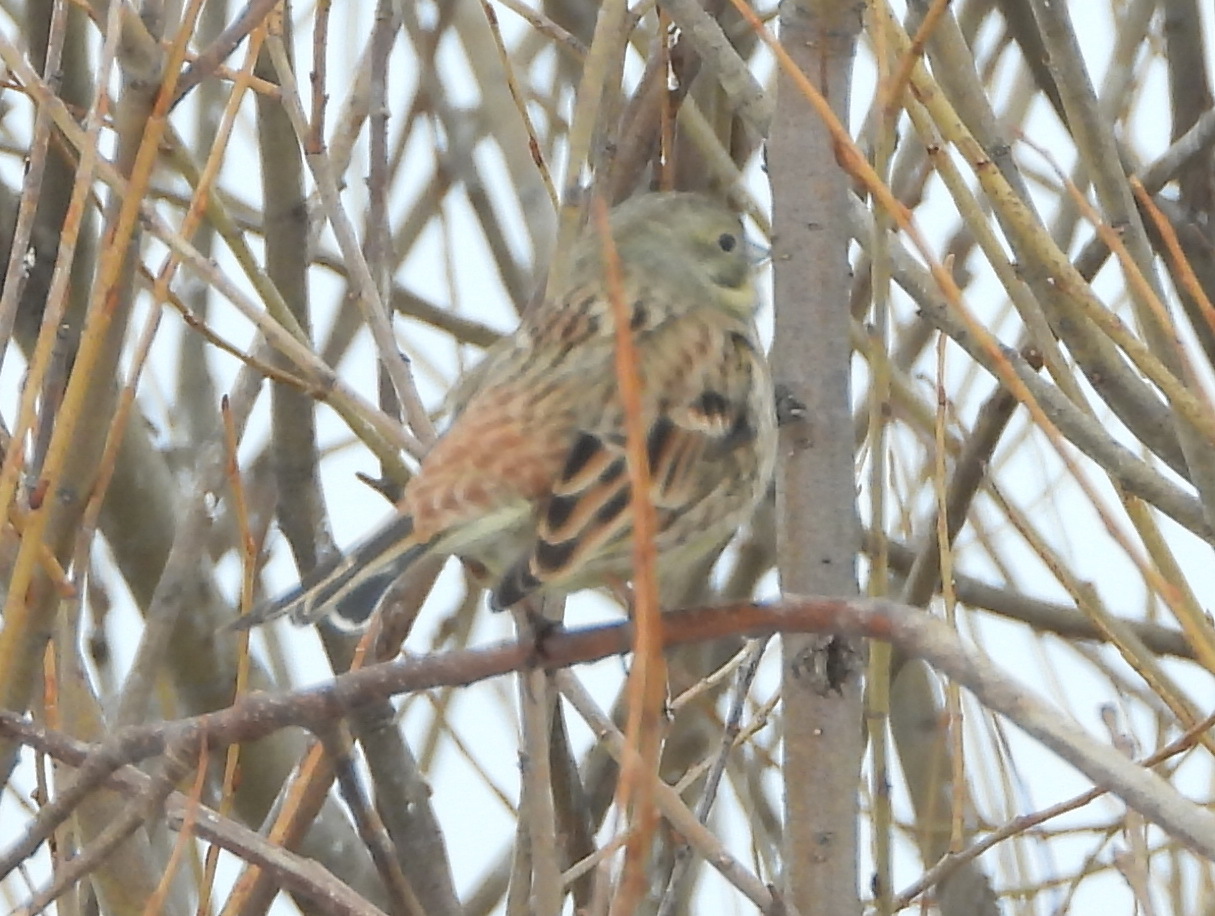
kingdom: Animalia
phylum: Chordata
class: Aves
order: Passeriformes
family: Emberizidae
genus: Emberiza
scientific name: Emberiza citrinella
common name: Yellowhammer
